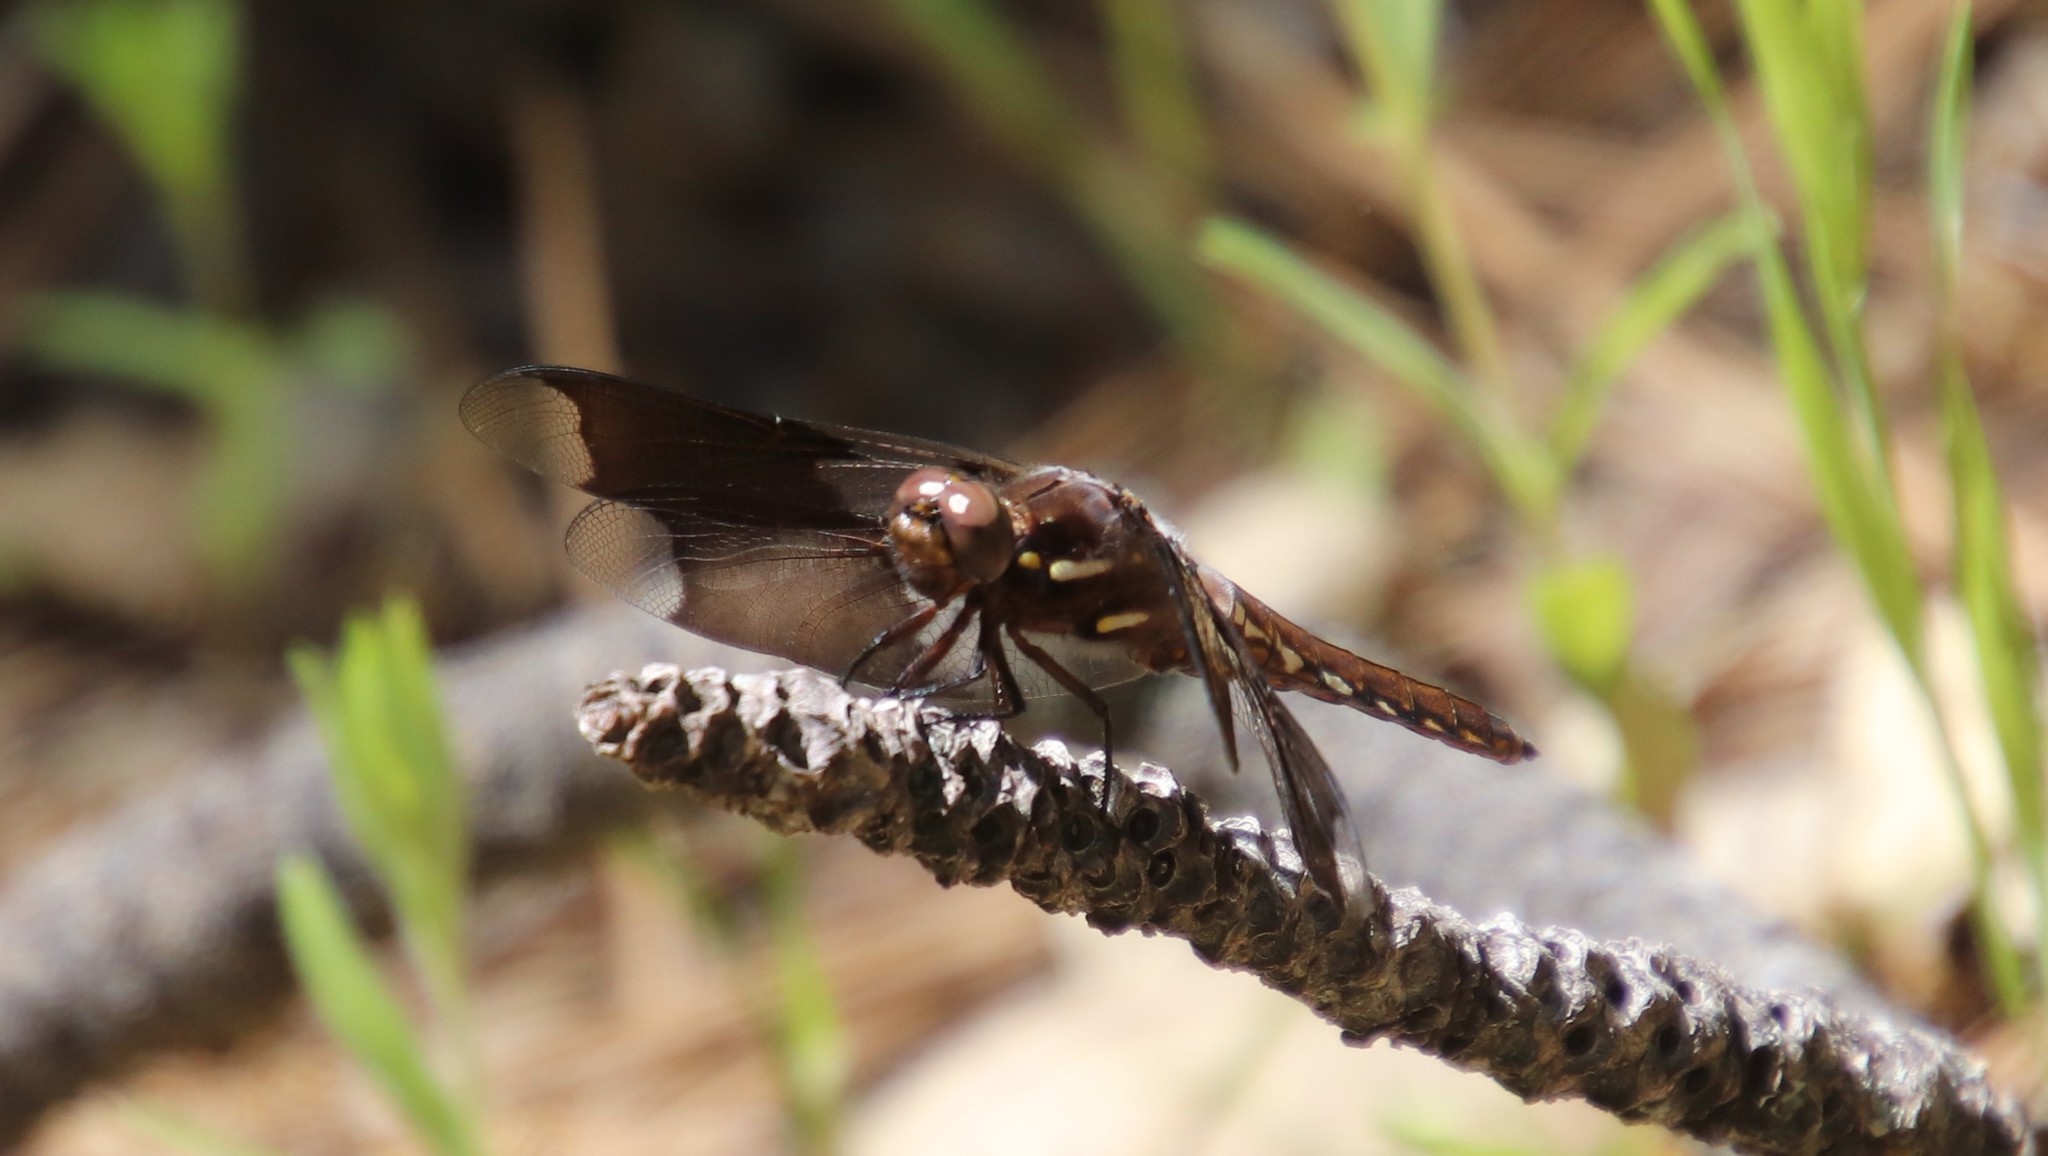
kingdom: Animalia
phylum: Arthropoda
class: Insecta
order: Odonata
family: Libellulidae
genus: Plathemis
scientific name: Plathemis lydia
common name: Common whitetail
